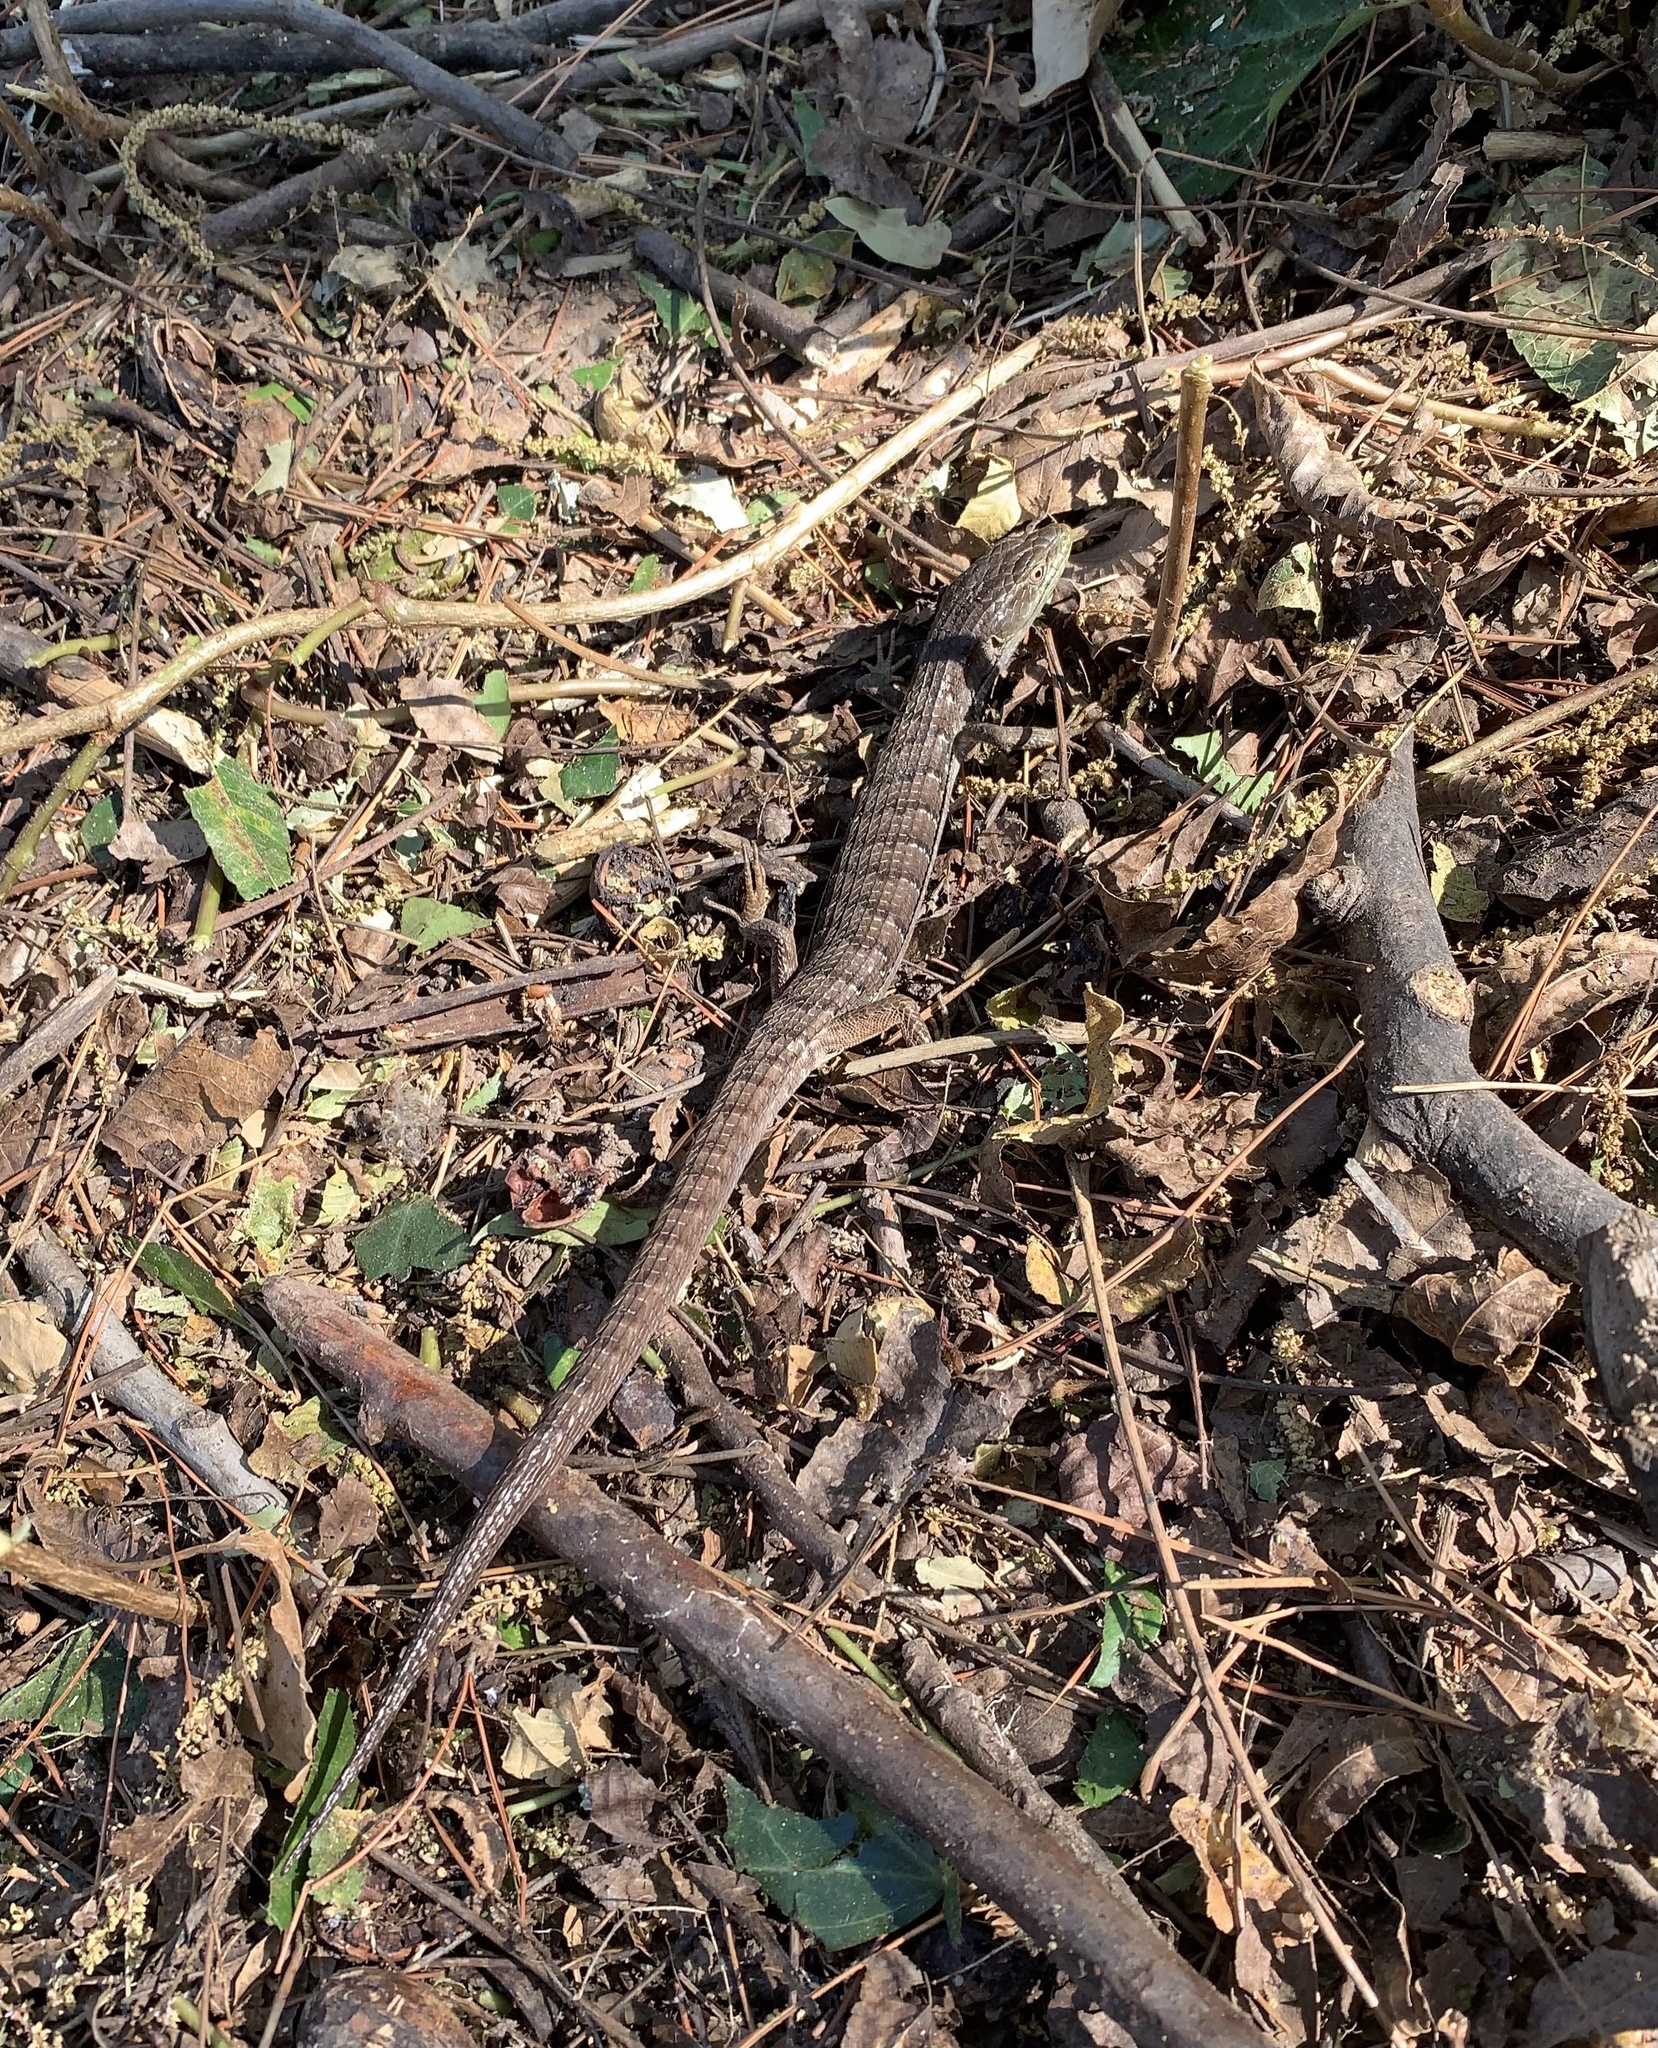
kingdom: Animalia
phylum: Chordata
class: Squamata
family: Anguidae
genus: Elgaria
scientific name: Elgaria multicarinata
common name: Southern alligator lizard
